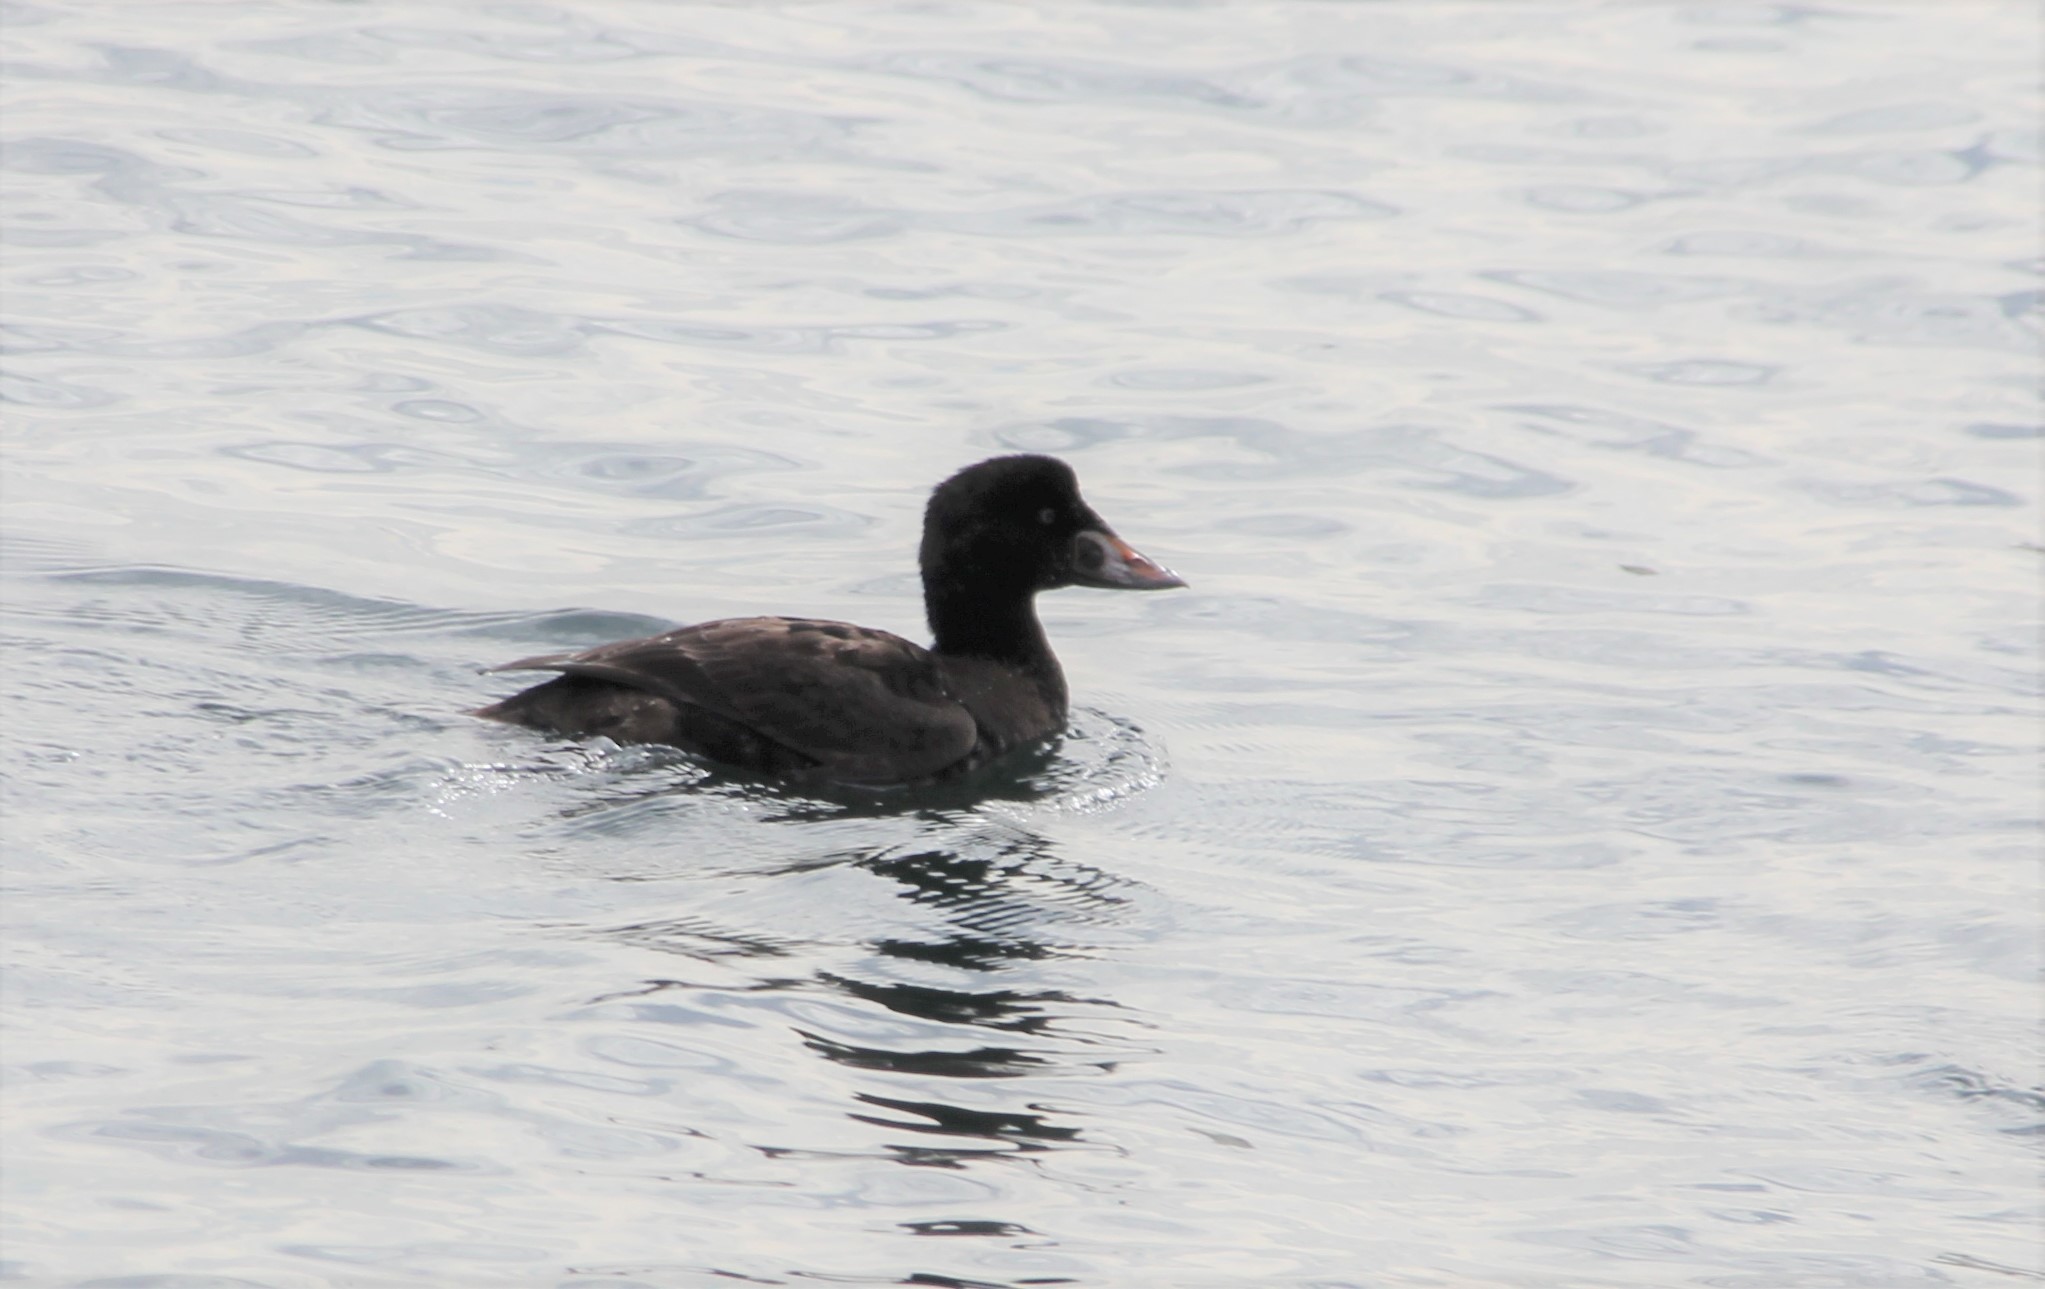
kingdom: Animalia
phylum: Chordata
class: Aves
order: Anseriformes
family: Anatidae
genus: Melanitta
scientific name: Melanitta perspicillata
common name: Surf scoter
